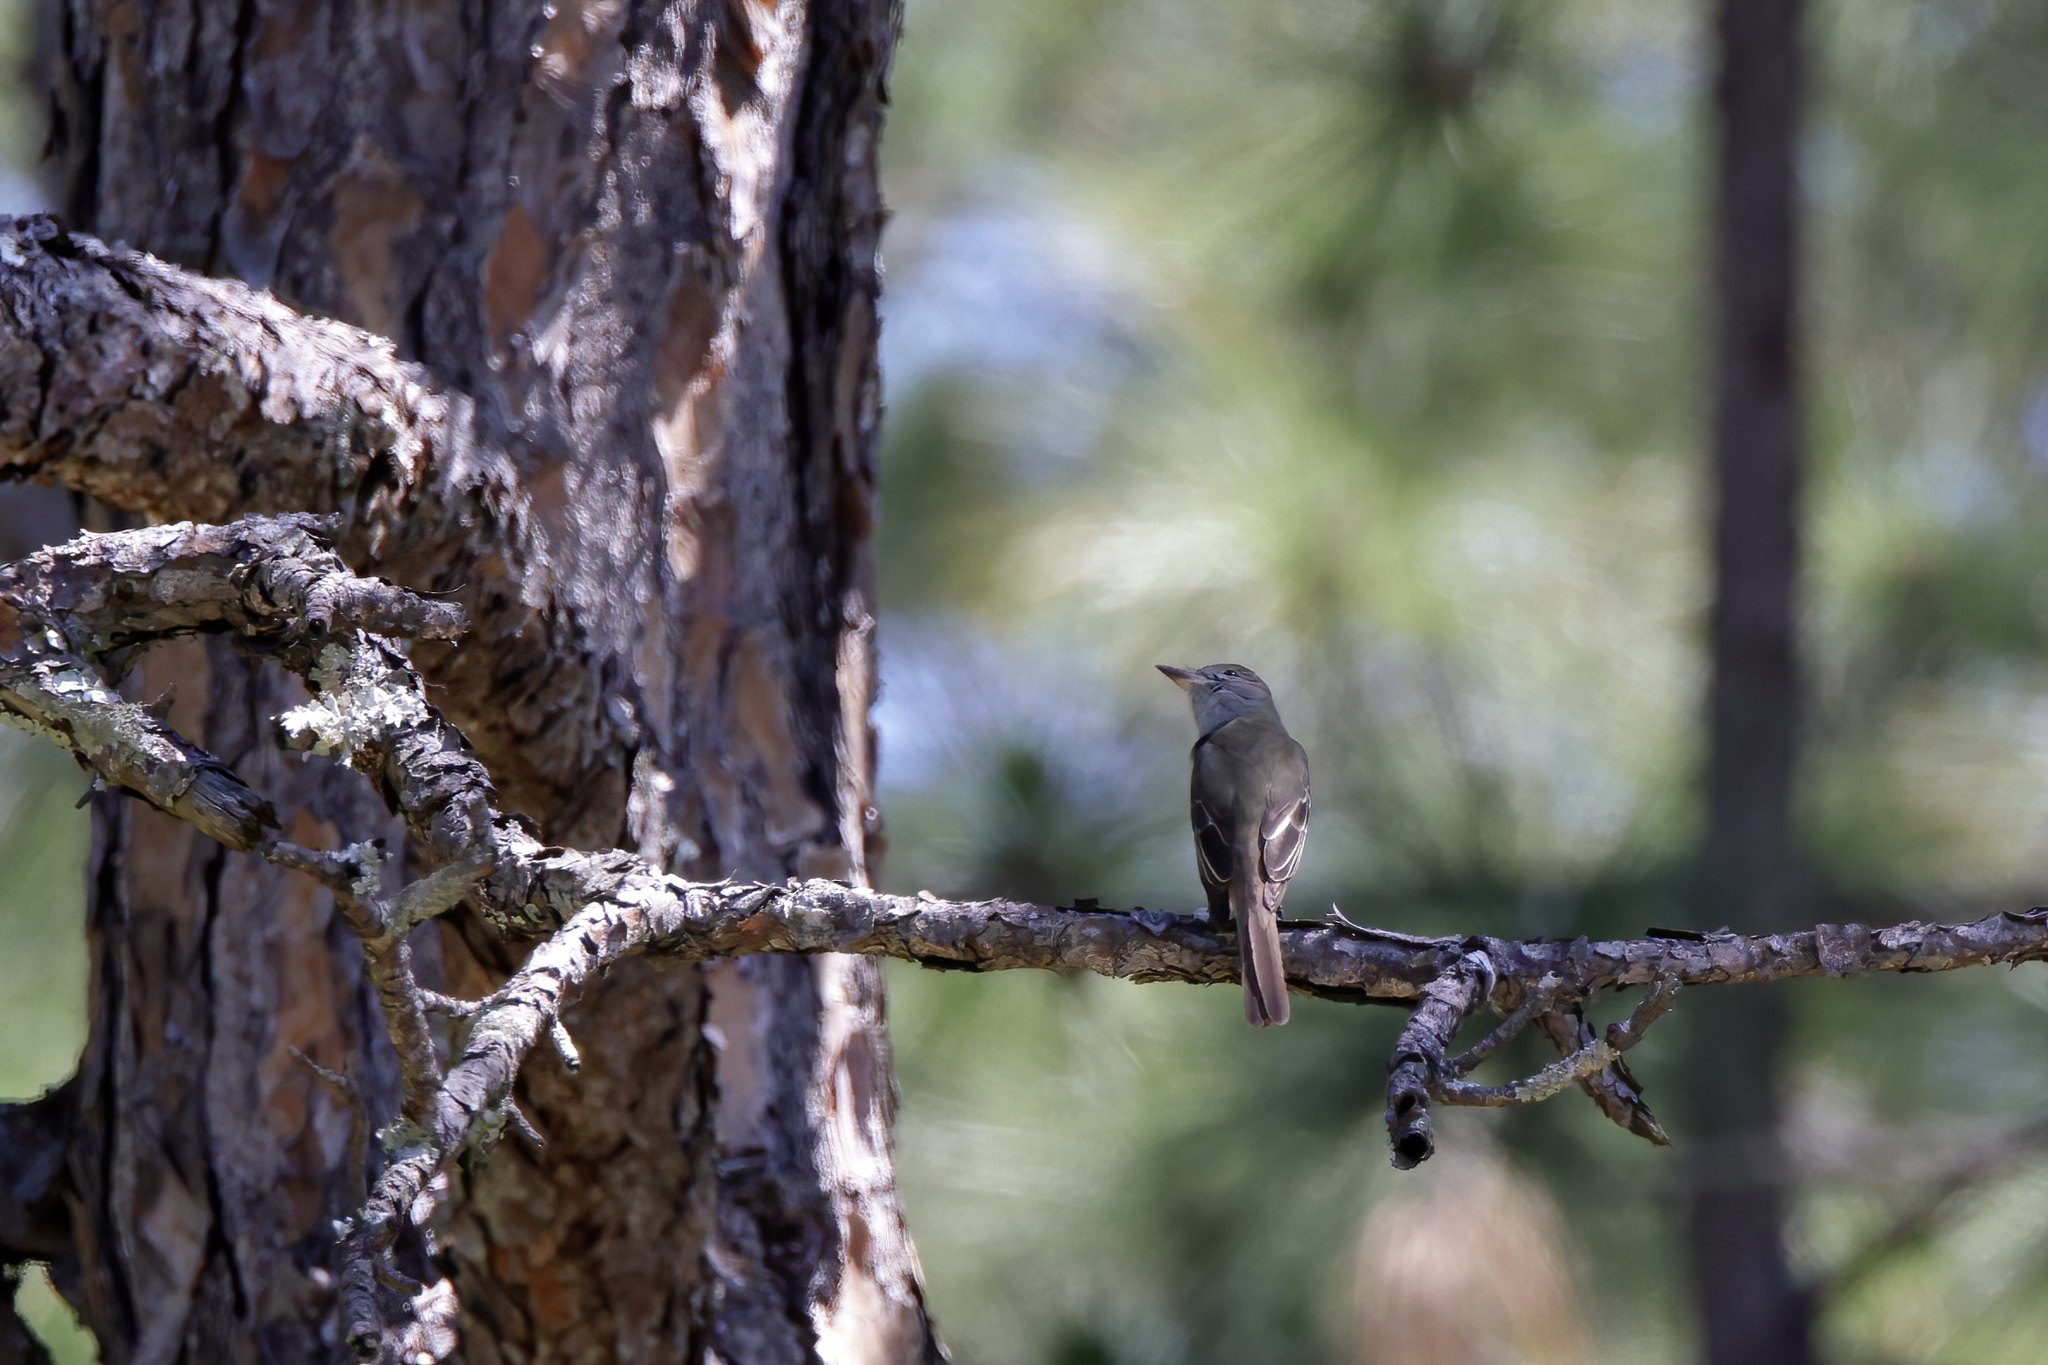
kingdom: Animalia
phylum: Chordata
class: Aves
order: Passeriformes
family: Tyrannidae
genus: Myiarchus
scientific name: Myiarchus crinitus
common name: Great crested flycatcher
